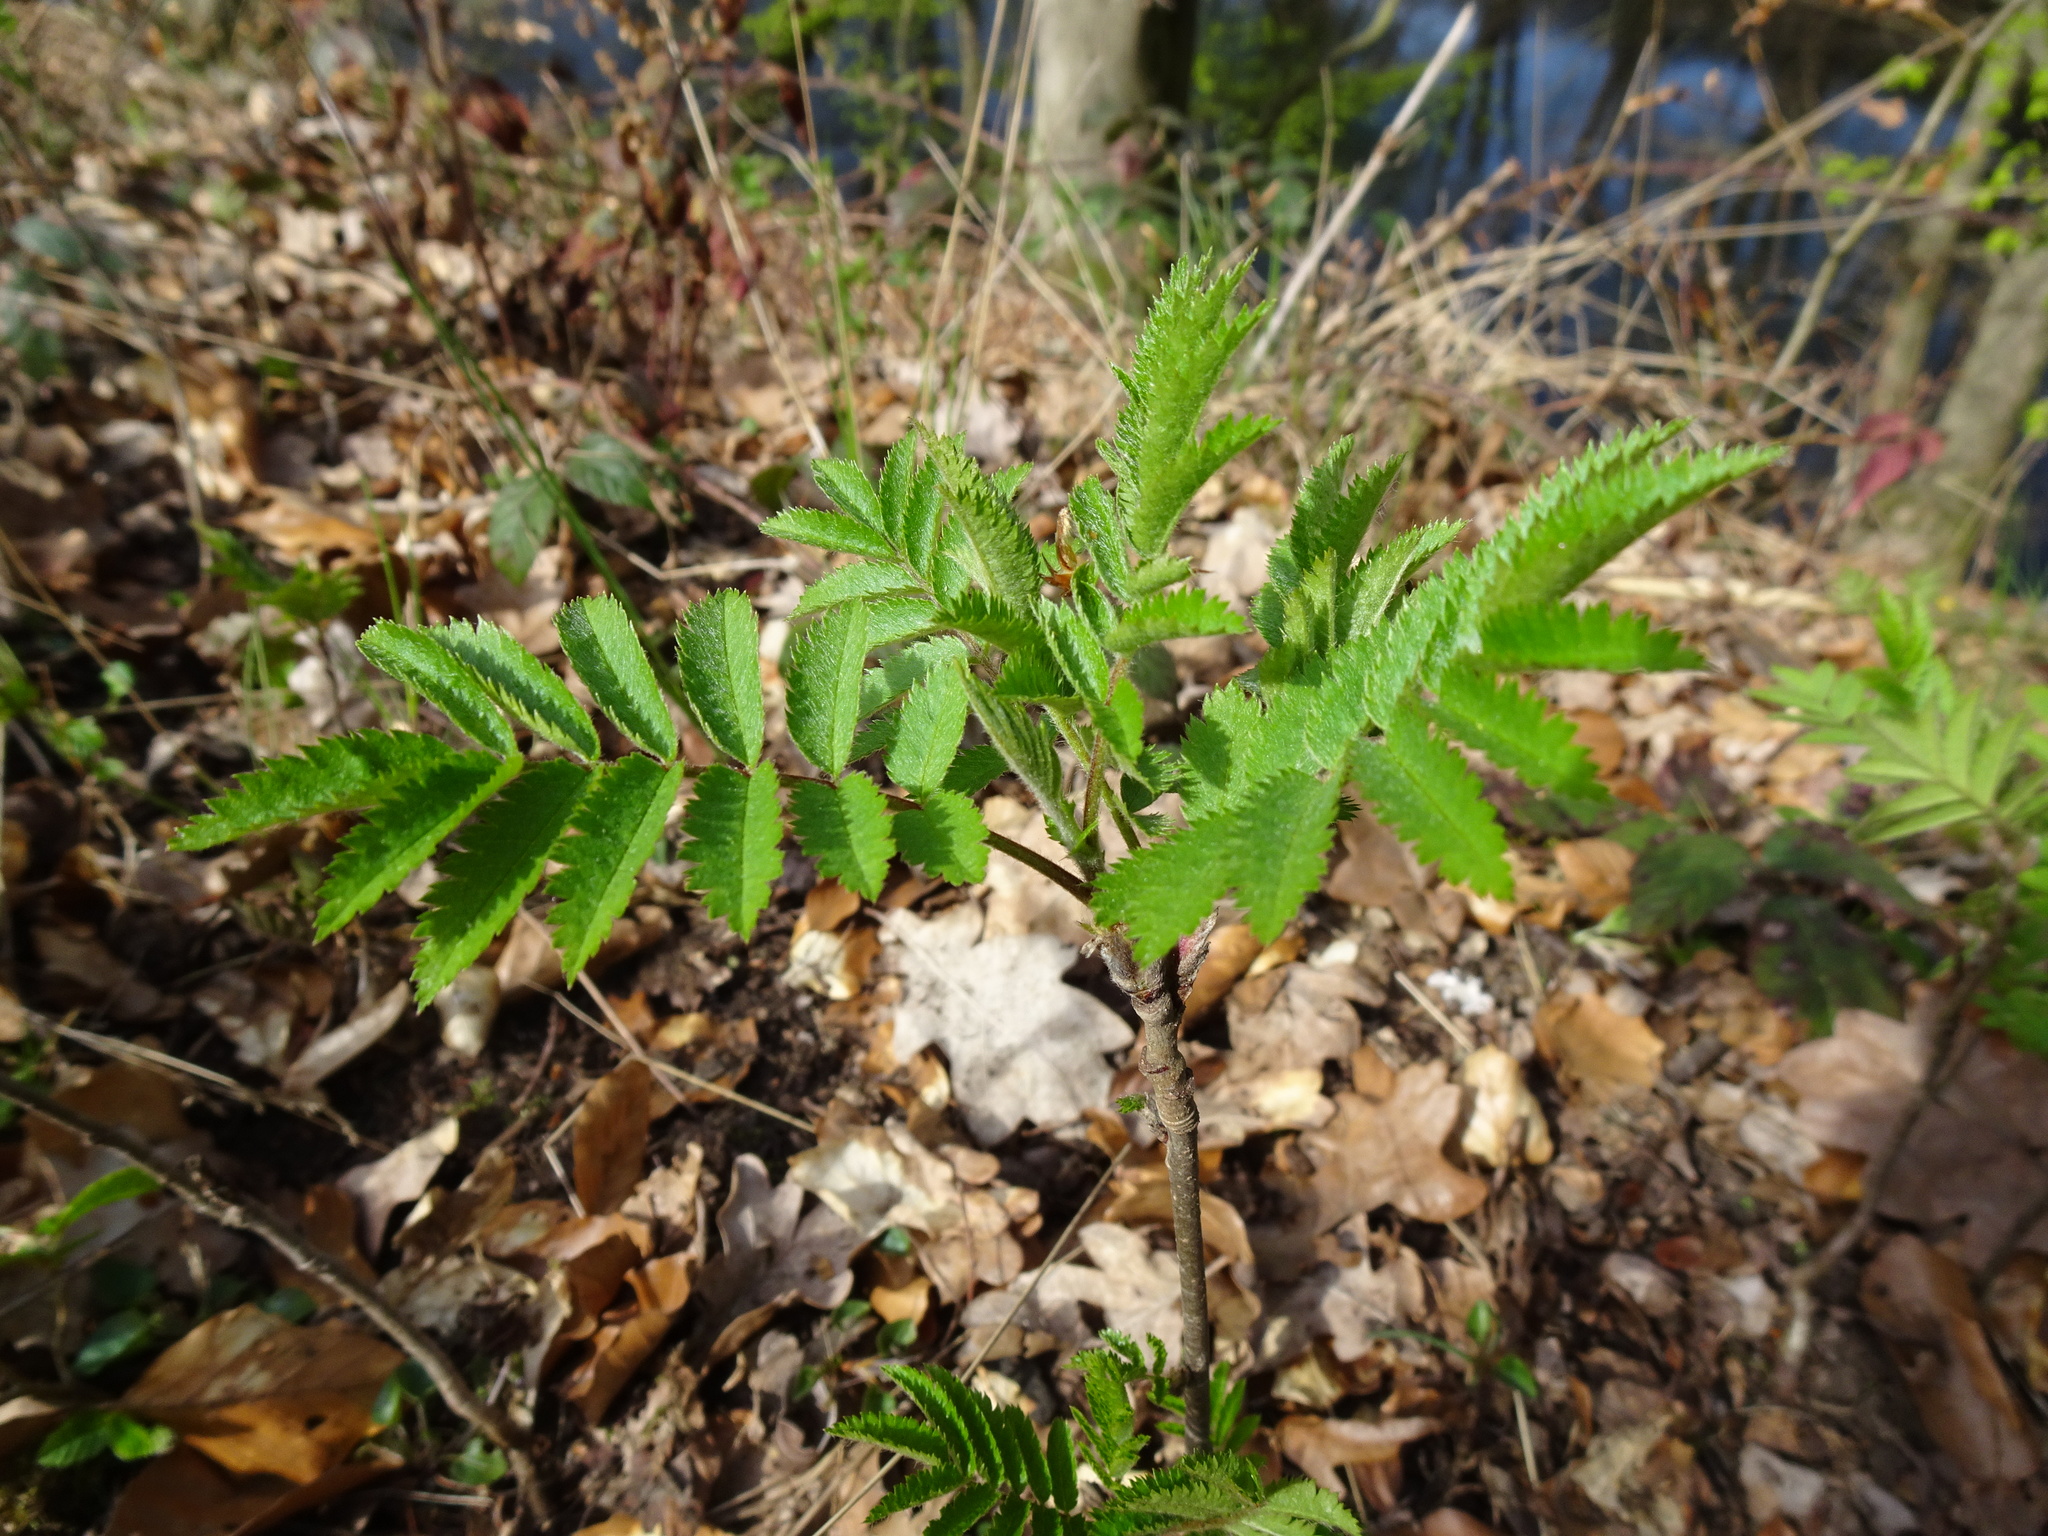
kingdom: Plantae
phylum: Tracheophyta
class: Magnoliopsida
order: Rosales
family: Rosaceae
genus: Sorbus
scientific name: Sorbus aucuparia
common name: Rowan
